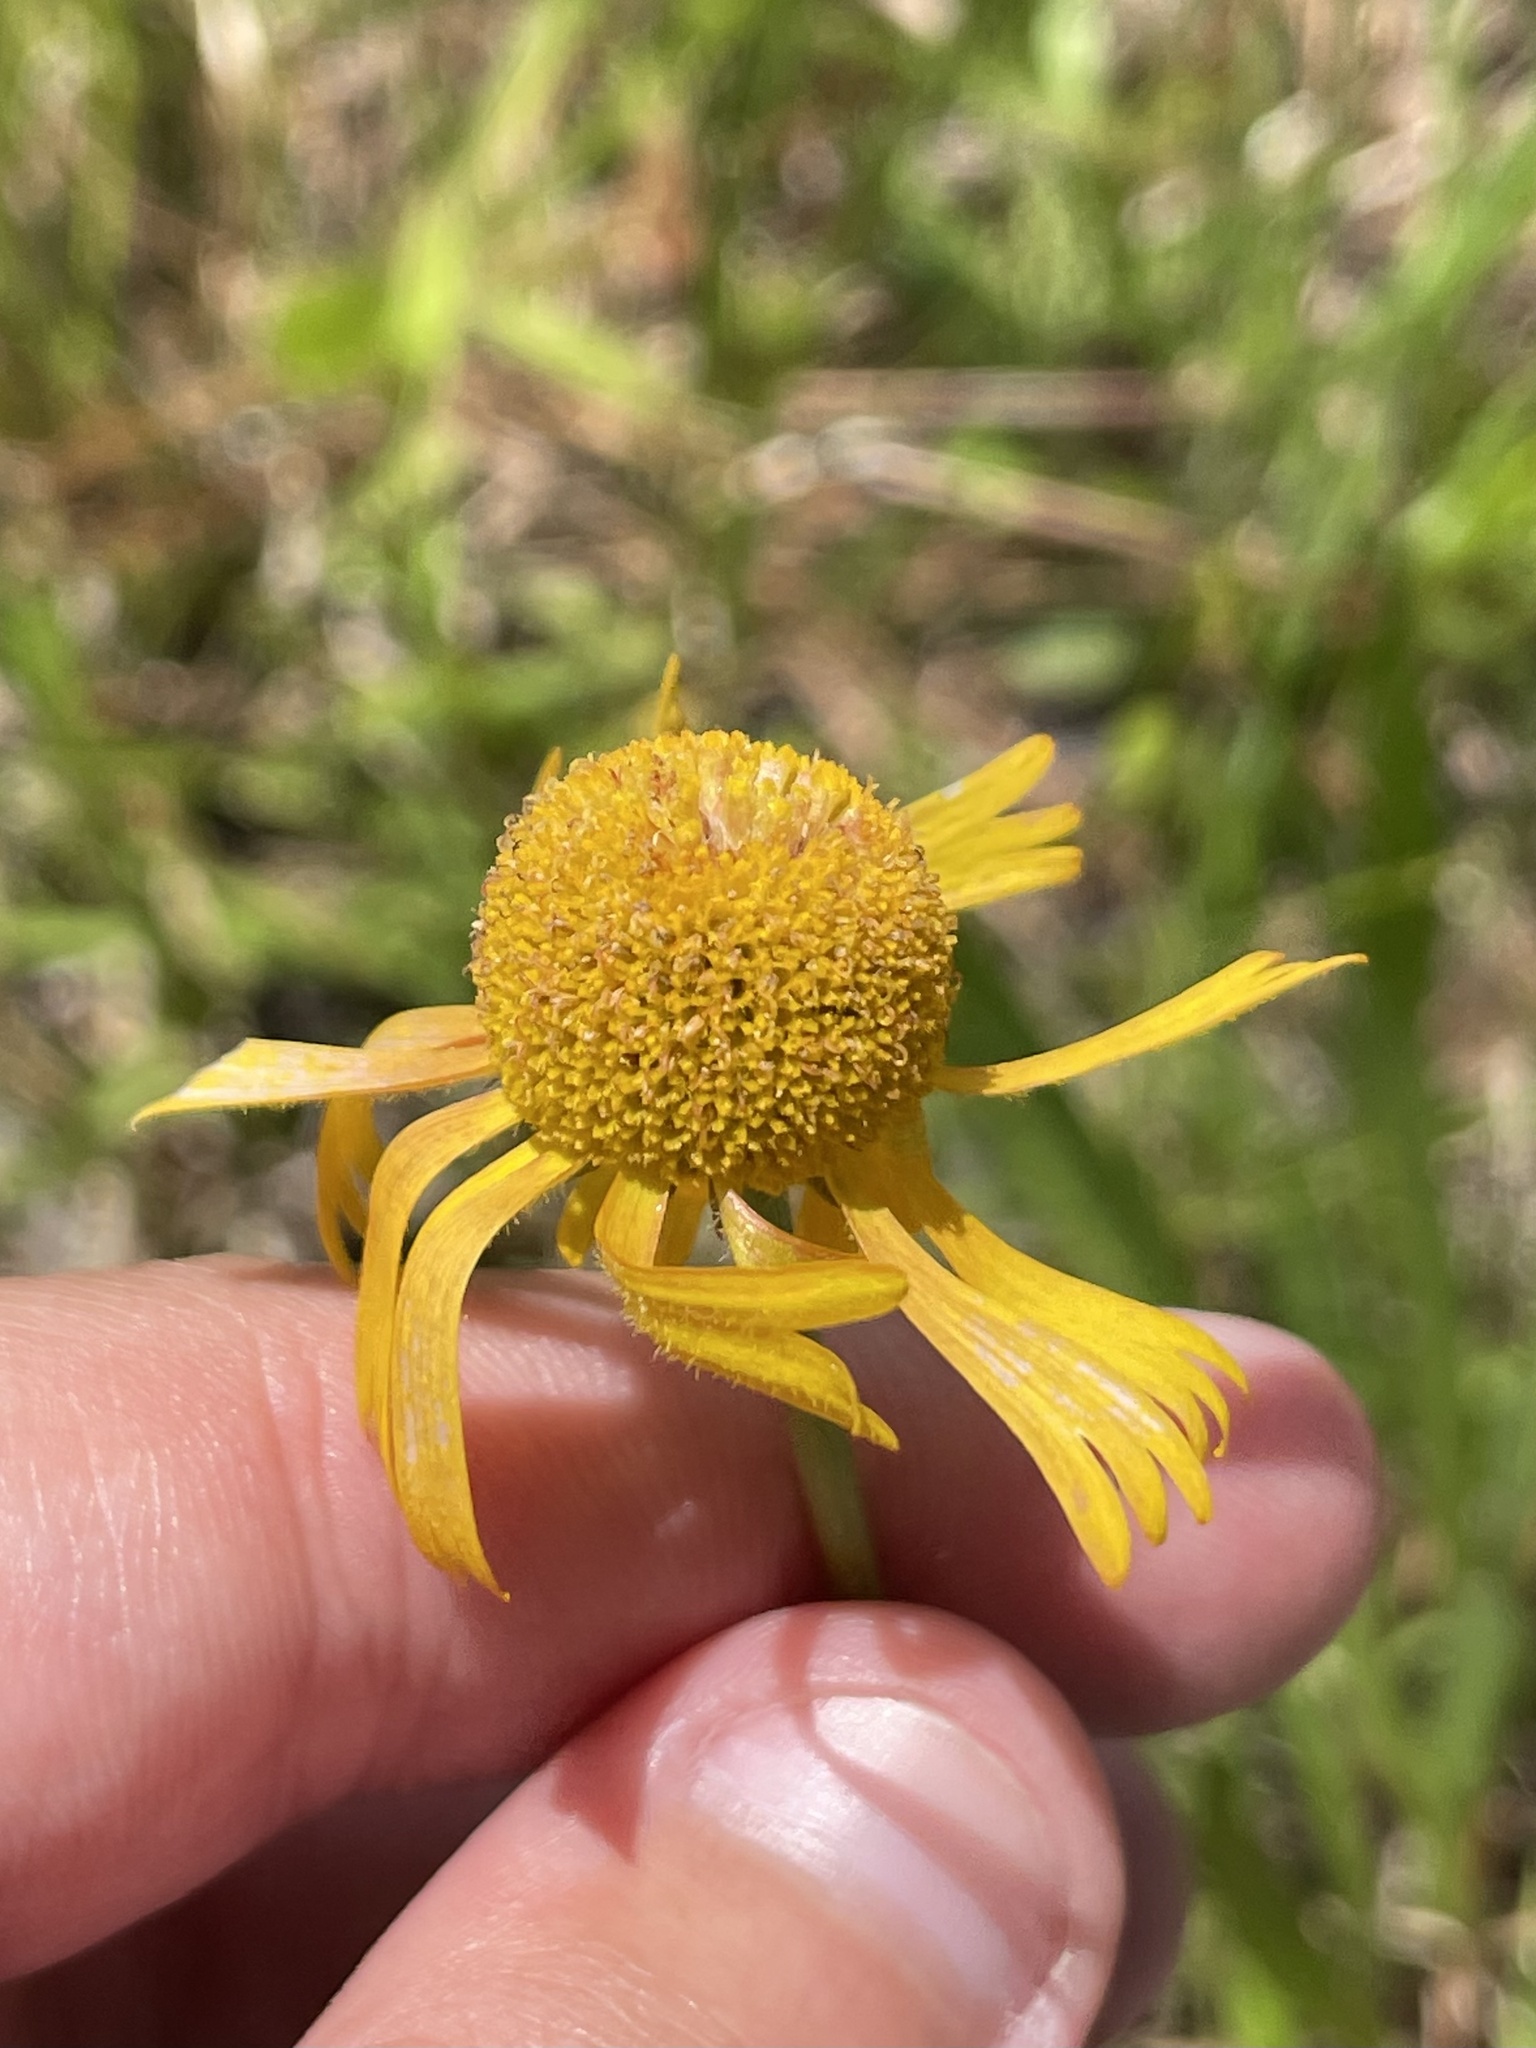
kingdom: Plantae
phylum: Tracheophyta
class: Magnoliopsida
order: Asterales
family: Asteraceae
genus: Helenium
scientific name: Helenium drummondii
